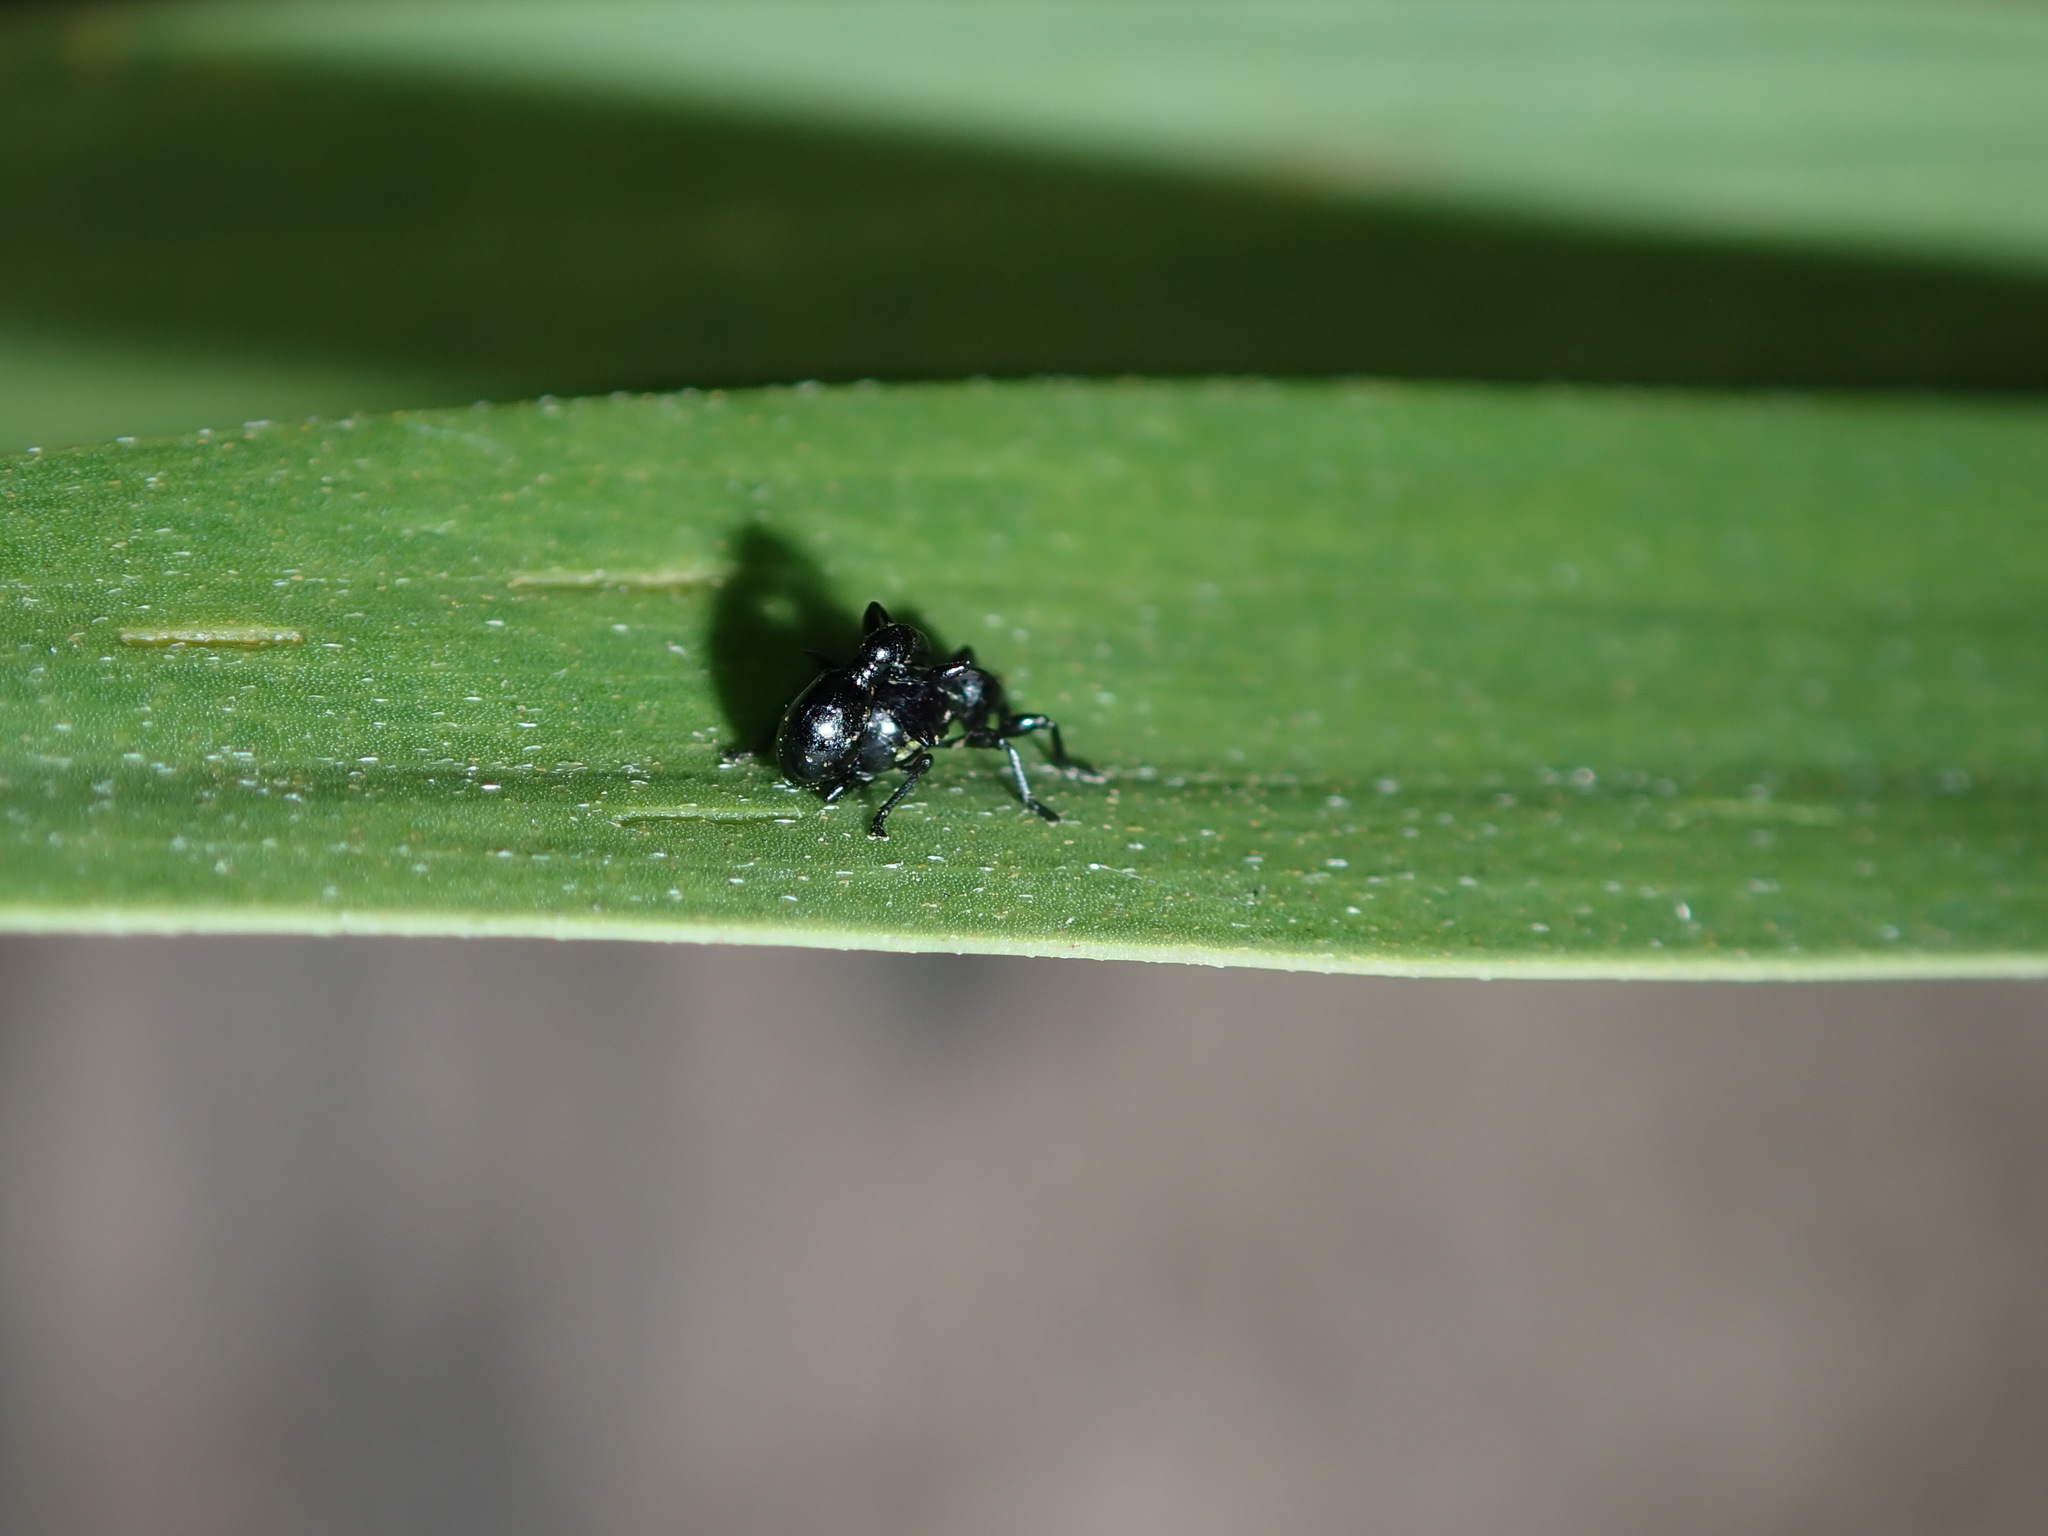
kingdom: Animalia
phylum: Arthropoda
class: Insecta
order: Coleoptera
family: Brentidae
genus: Rhynolaccus
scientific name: Rhynolaccus formicarius
